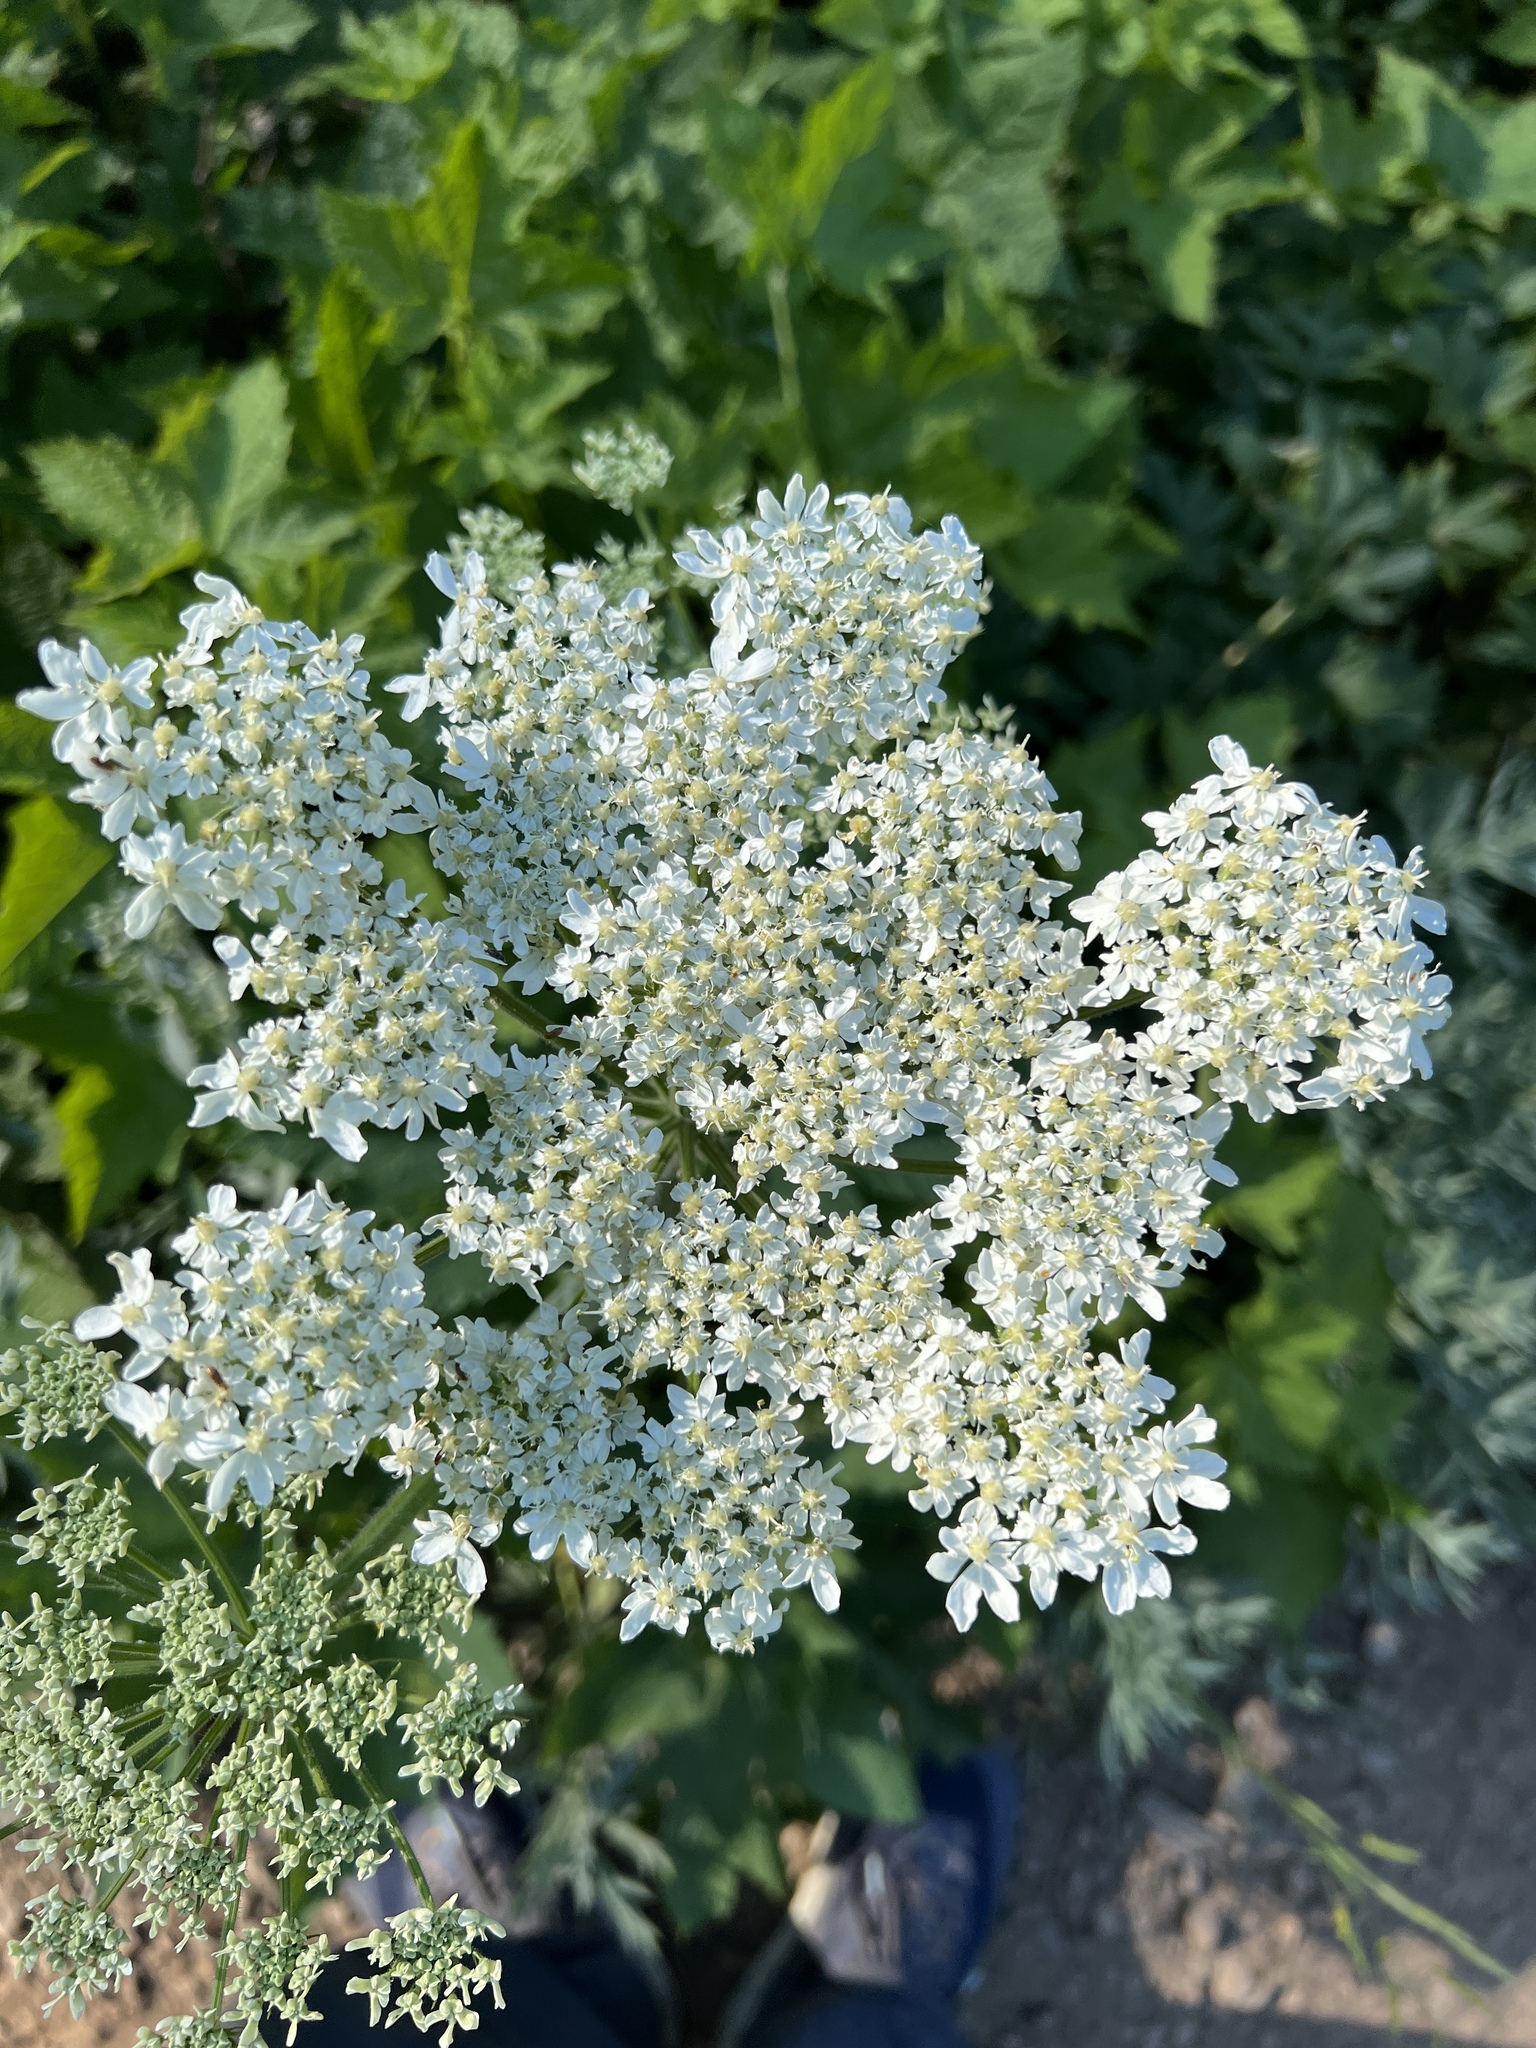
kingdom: Plantae
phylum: Tracheophyta
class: Magnoliopsida
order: Apiales
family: Apiaceae
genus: Heracleum
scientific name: Heracleum maximum
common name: American cow parsnip
